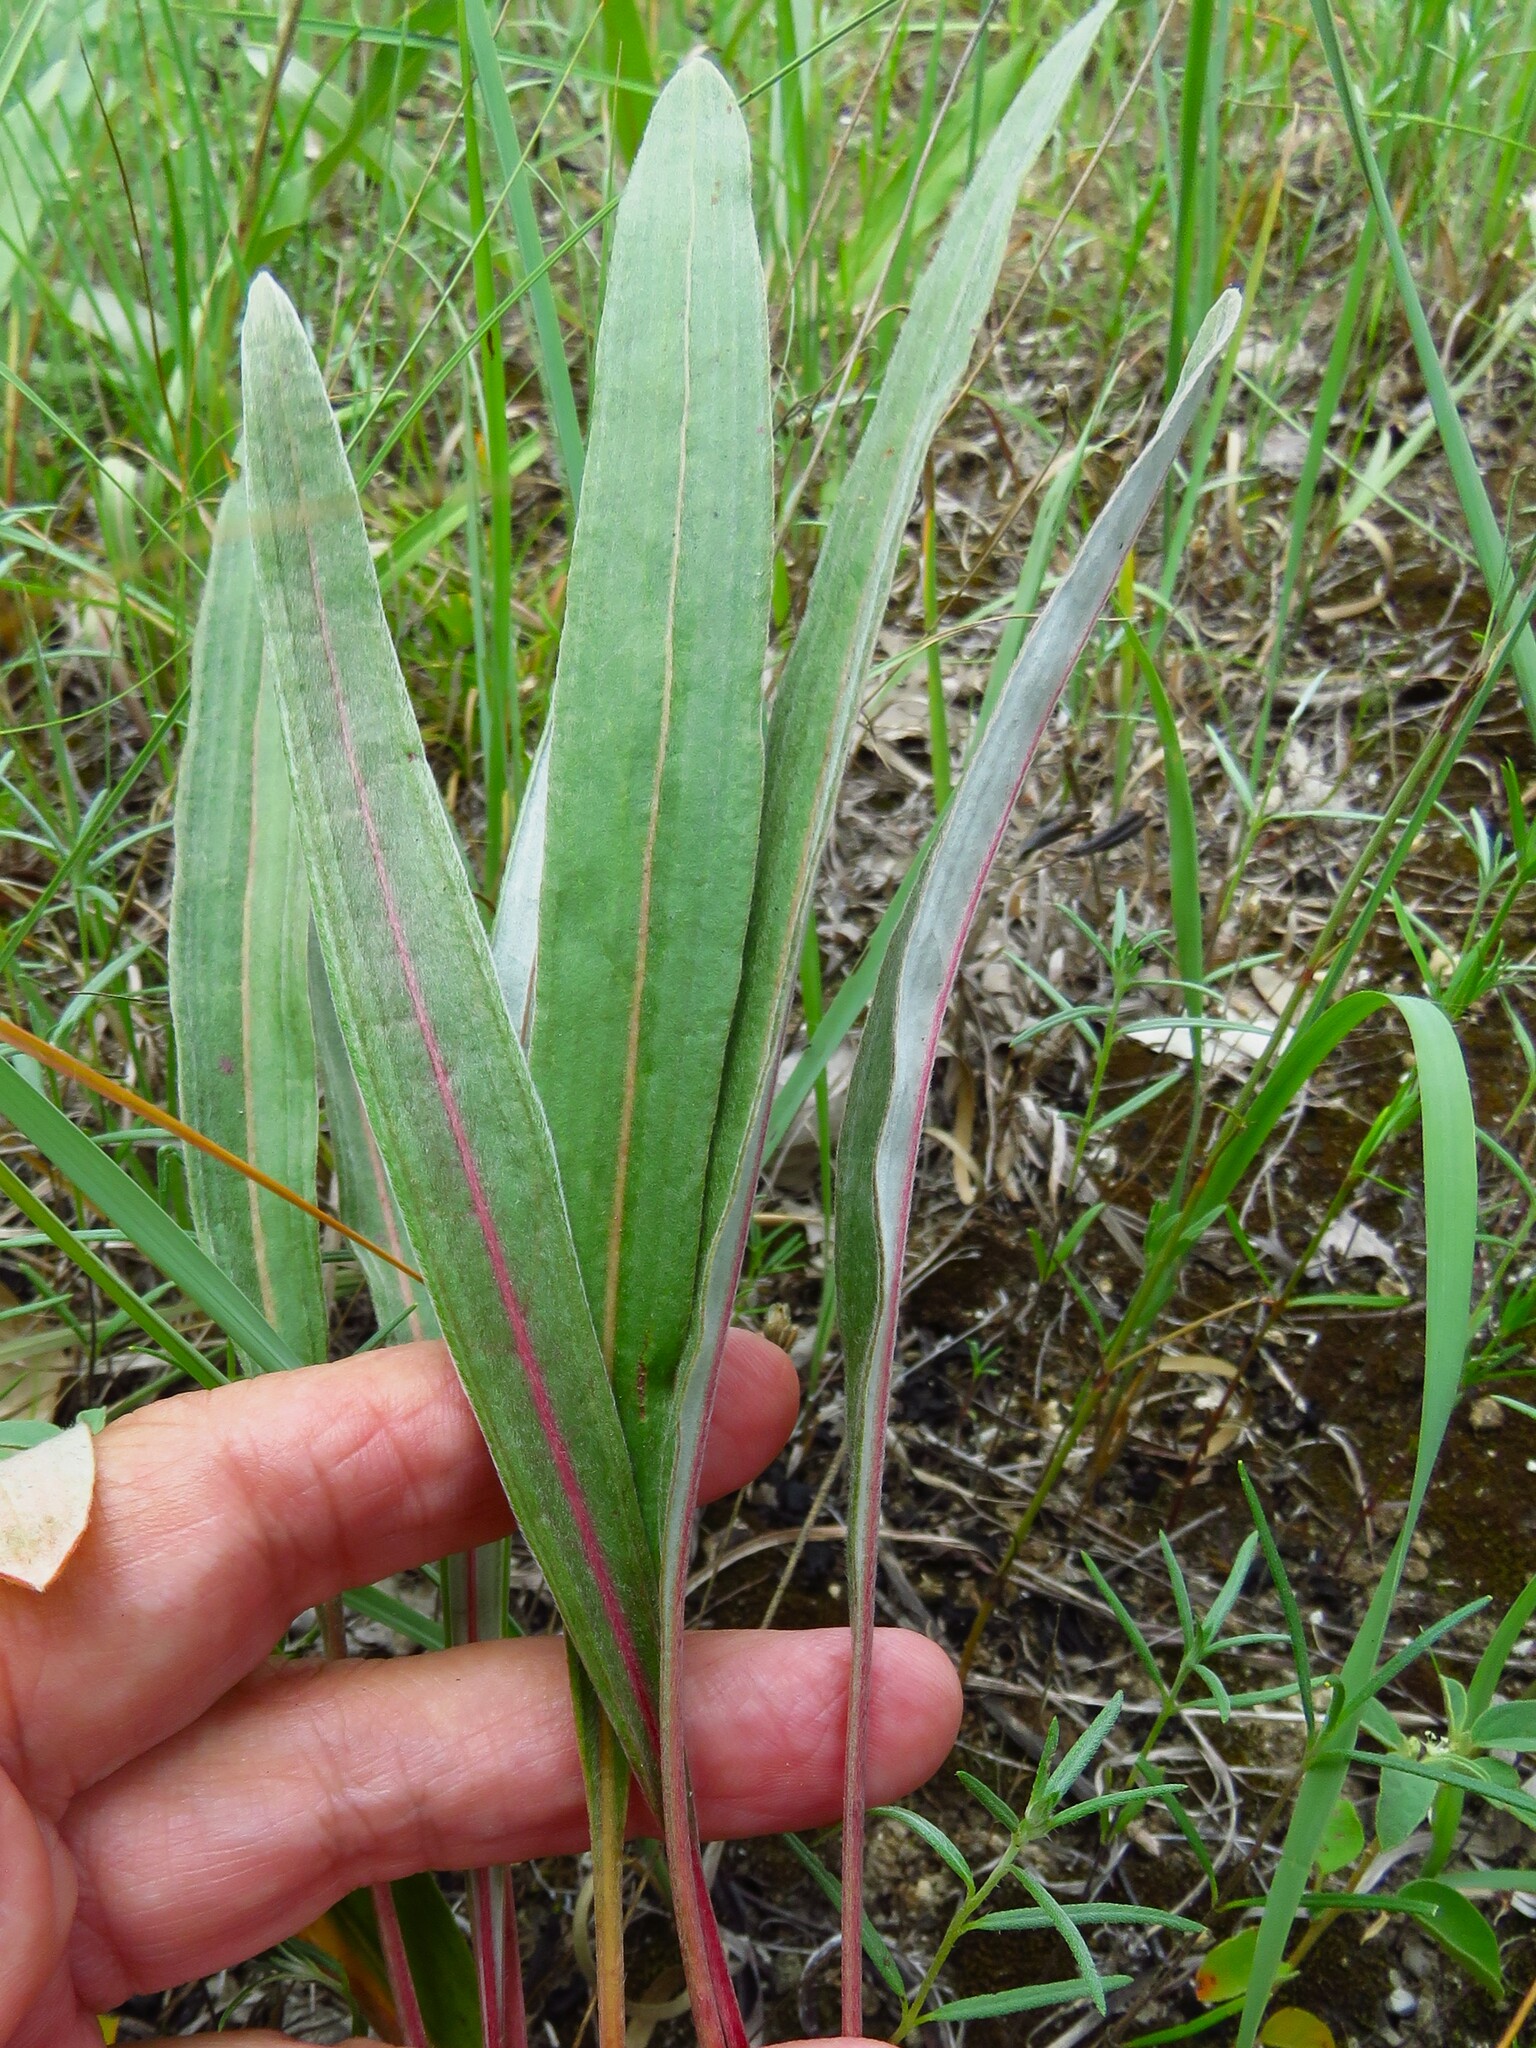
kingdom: Plantae
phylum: Tracheophyta
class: Magnoliopsida
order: Caryophyllales
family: Polygonaceae
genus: Eriogonum
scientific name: Eriogonum longifolium
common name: Longleaf wild buckwheat
